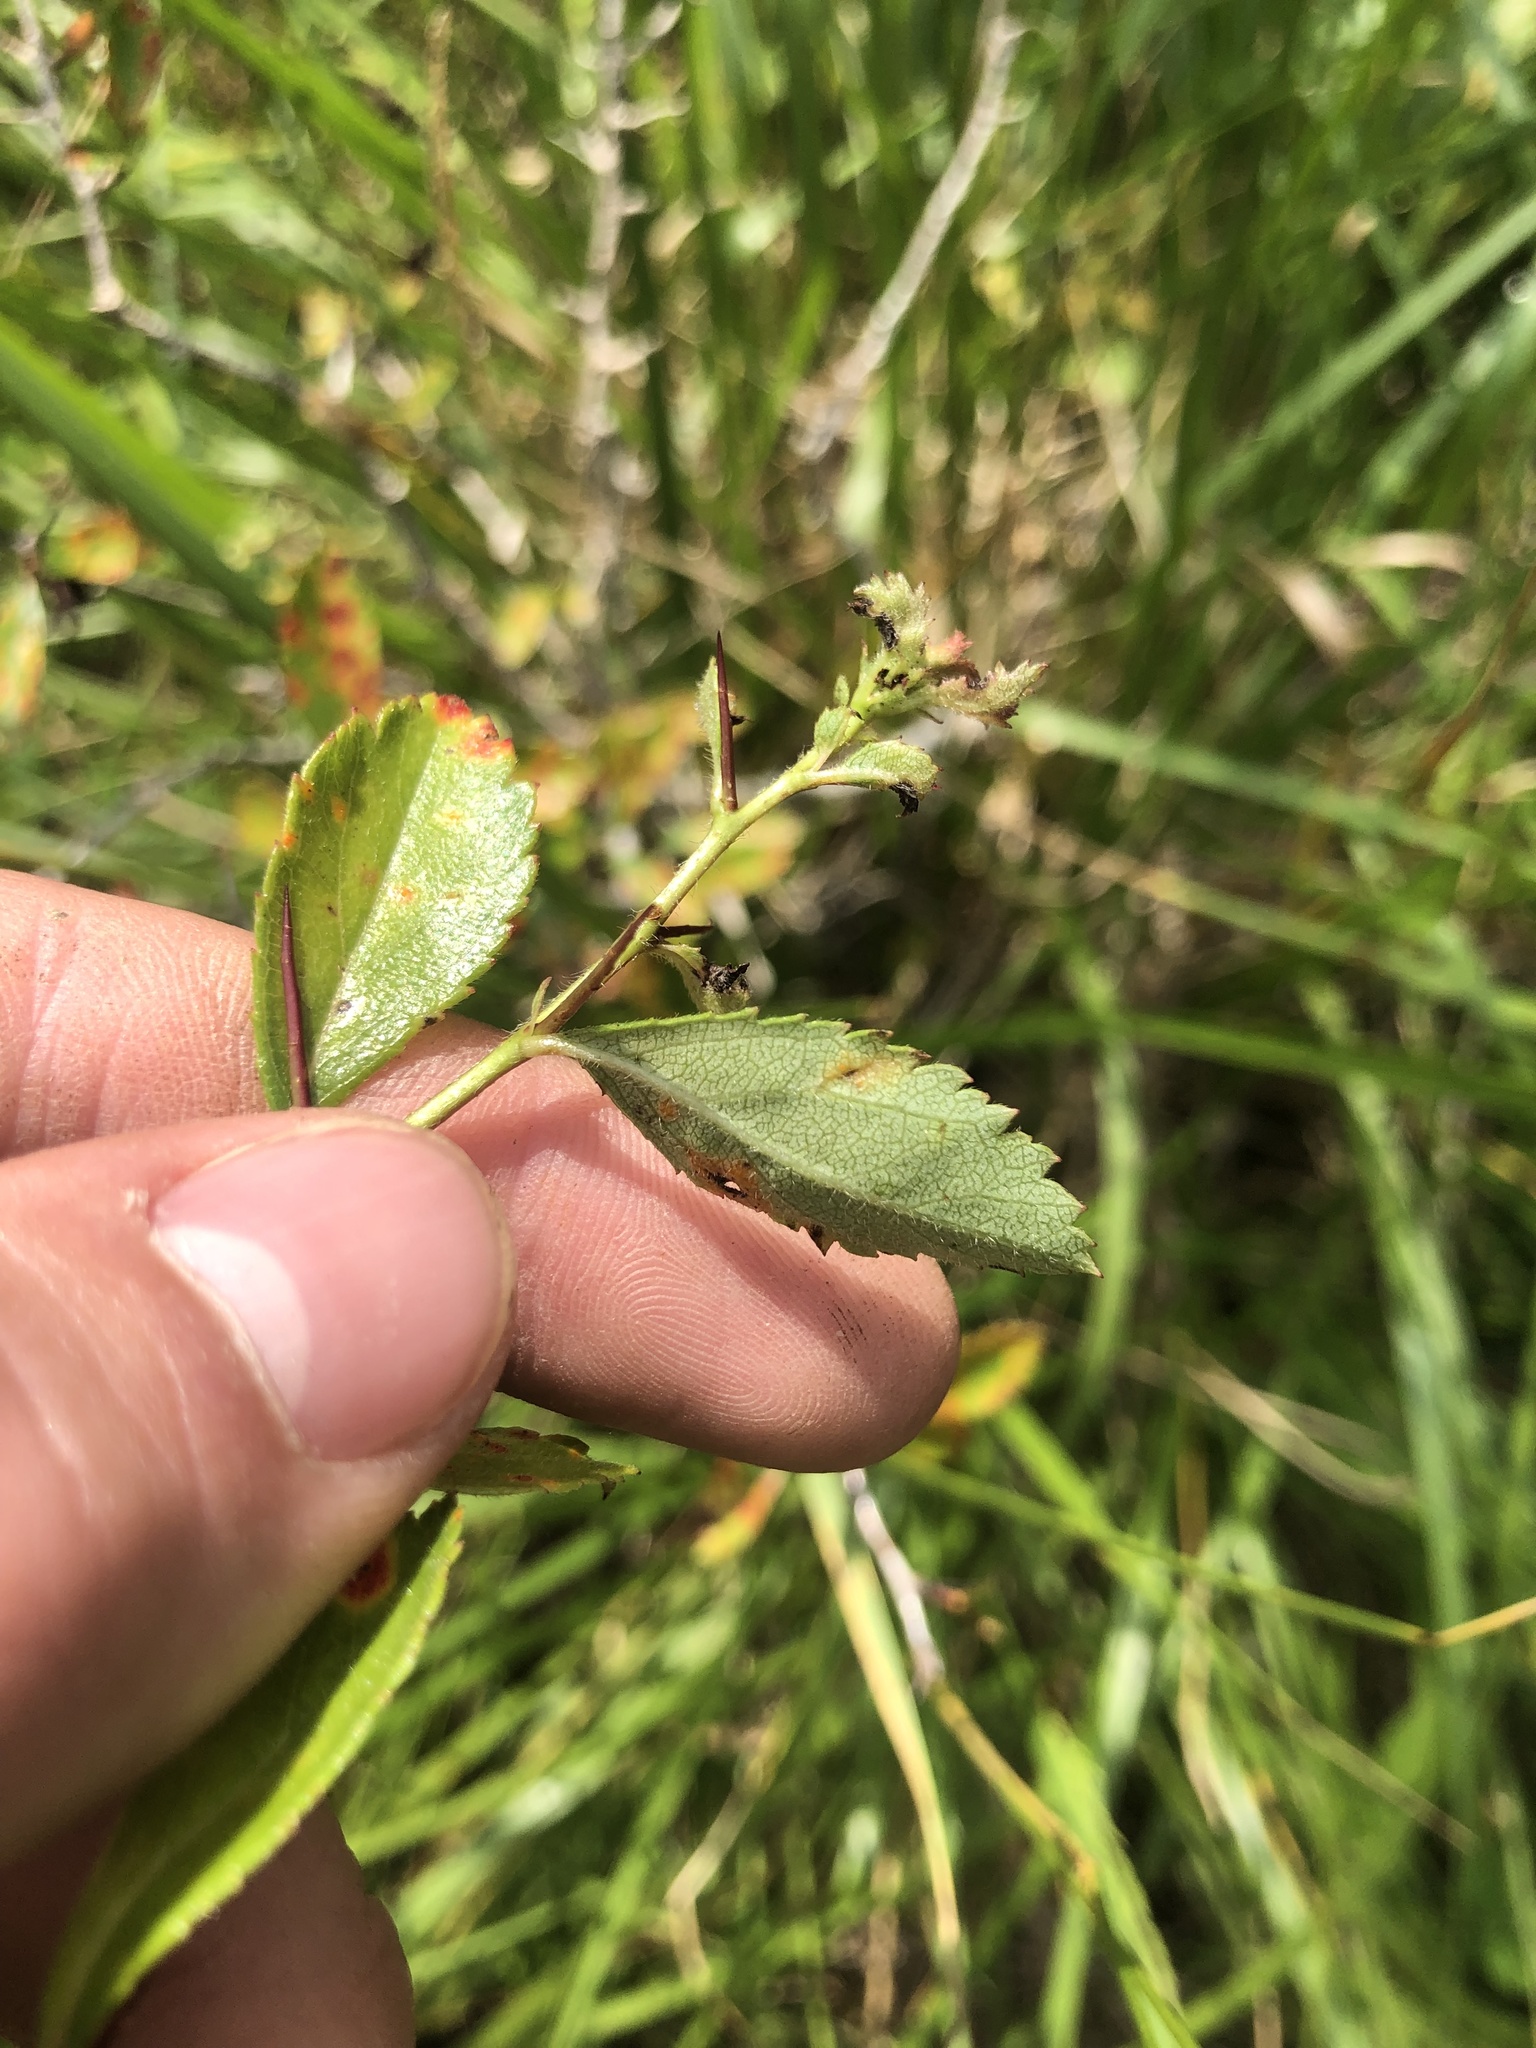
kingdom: Plantae
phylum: Tracheophyta
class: Magnoliopsida
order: Rosales
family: Rosaceae
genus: Crataegus
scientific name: Crataegus berberifolia
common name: Barberry hawthorn
